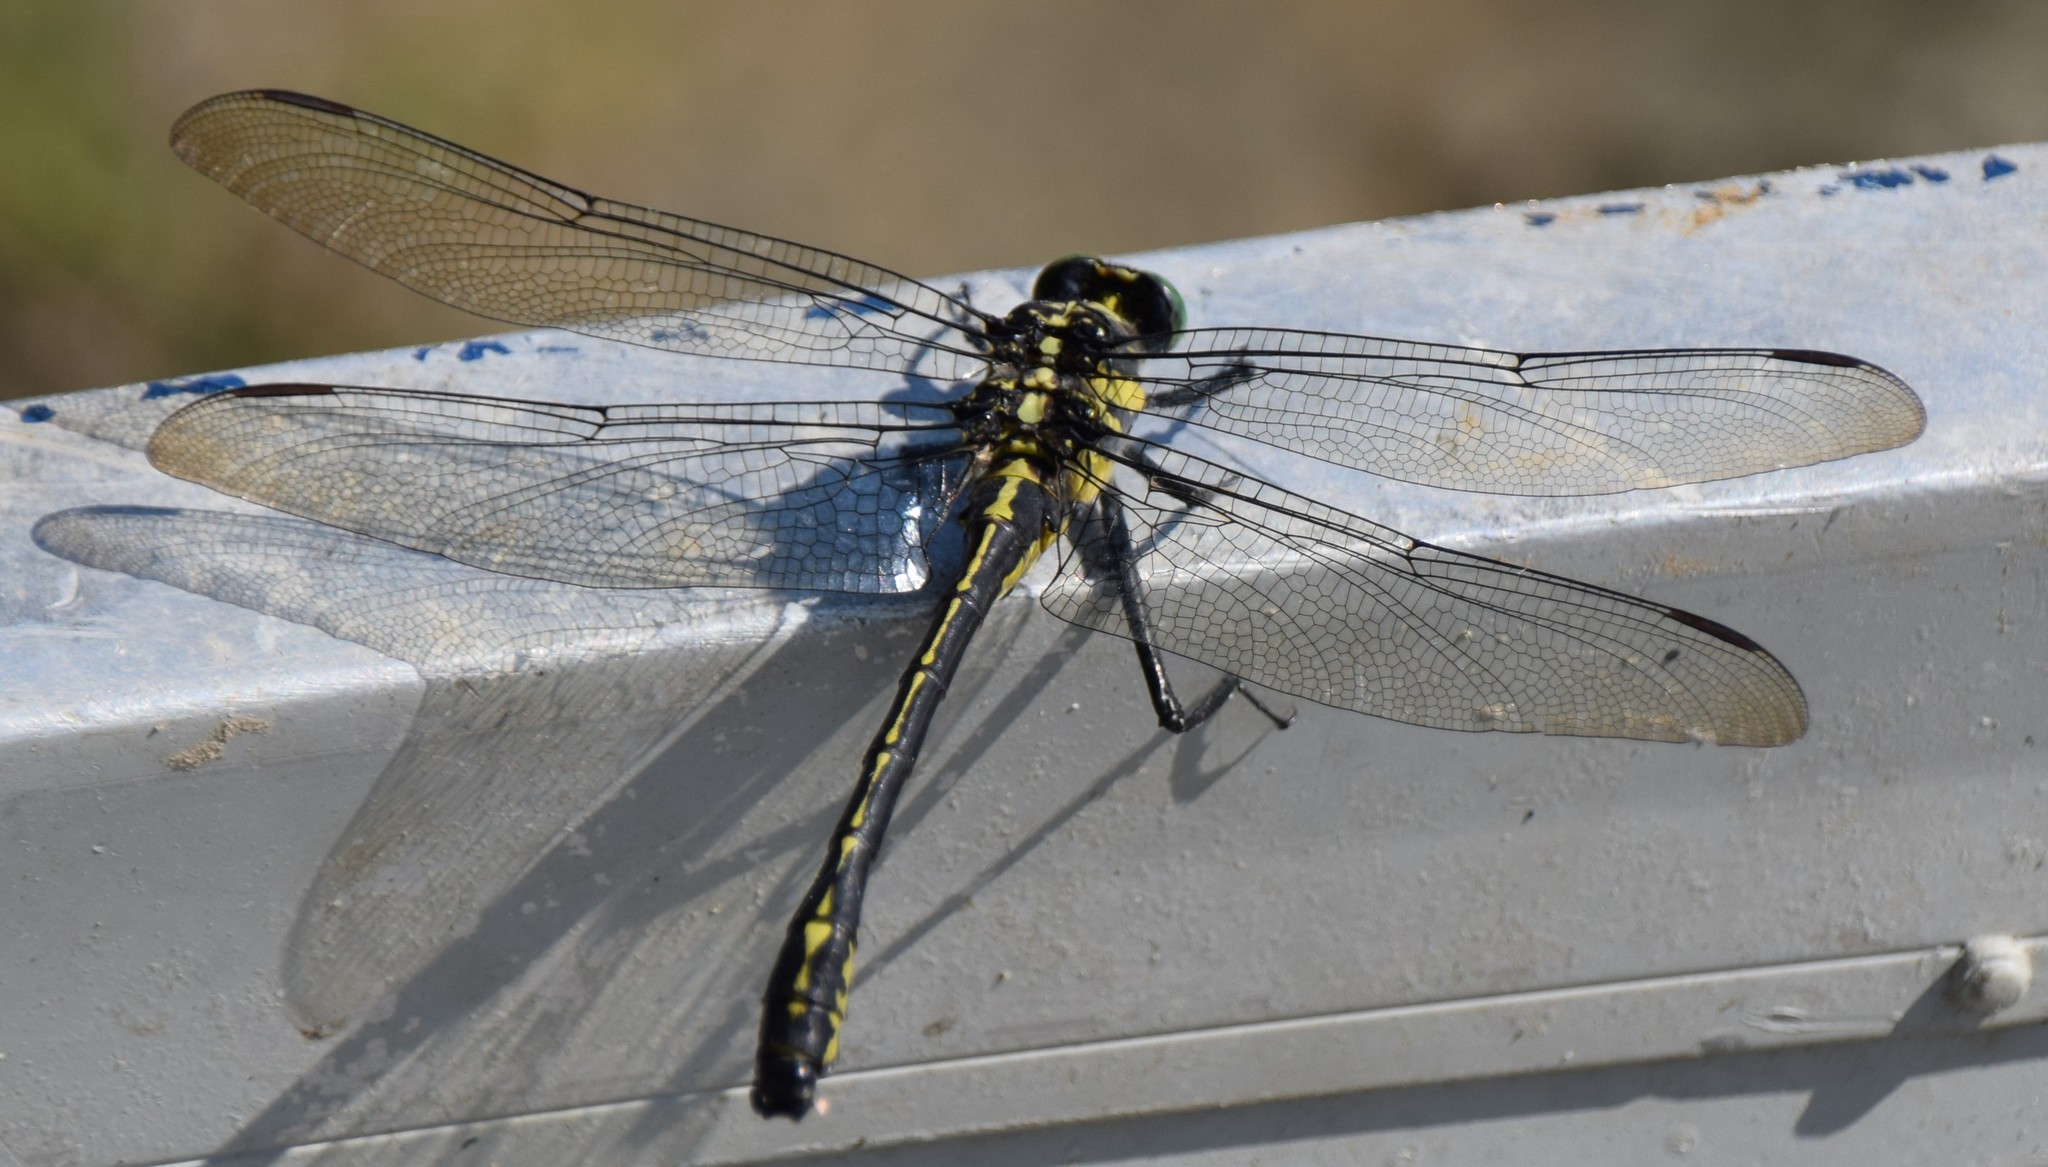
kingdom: Animalia
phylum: Arthropoda
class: Insecta
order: Odonata
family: Gomphidae
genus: Hagenius
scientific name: Hagenius brevistylus
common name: Dragonhunter
